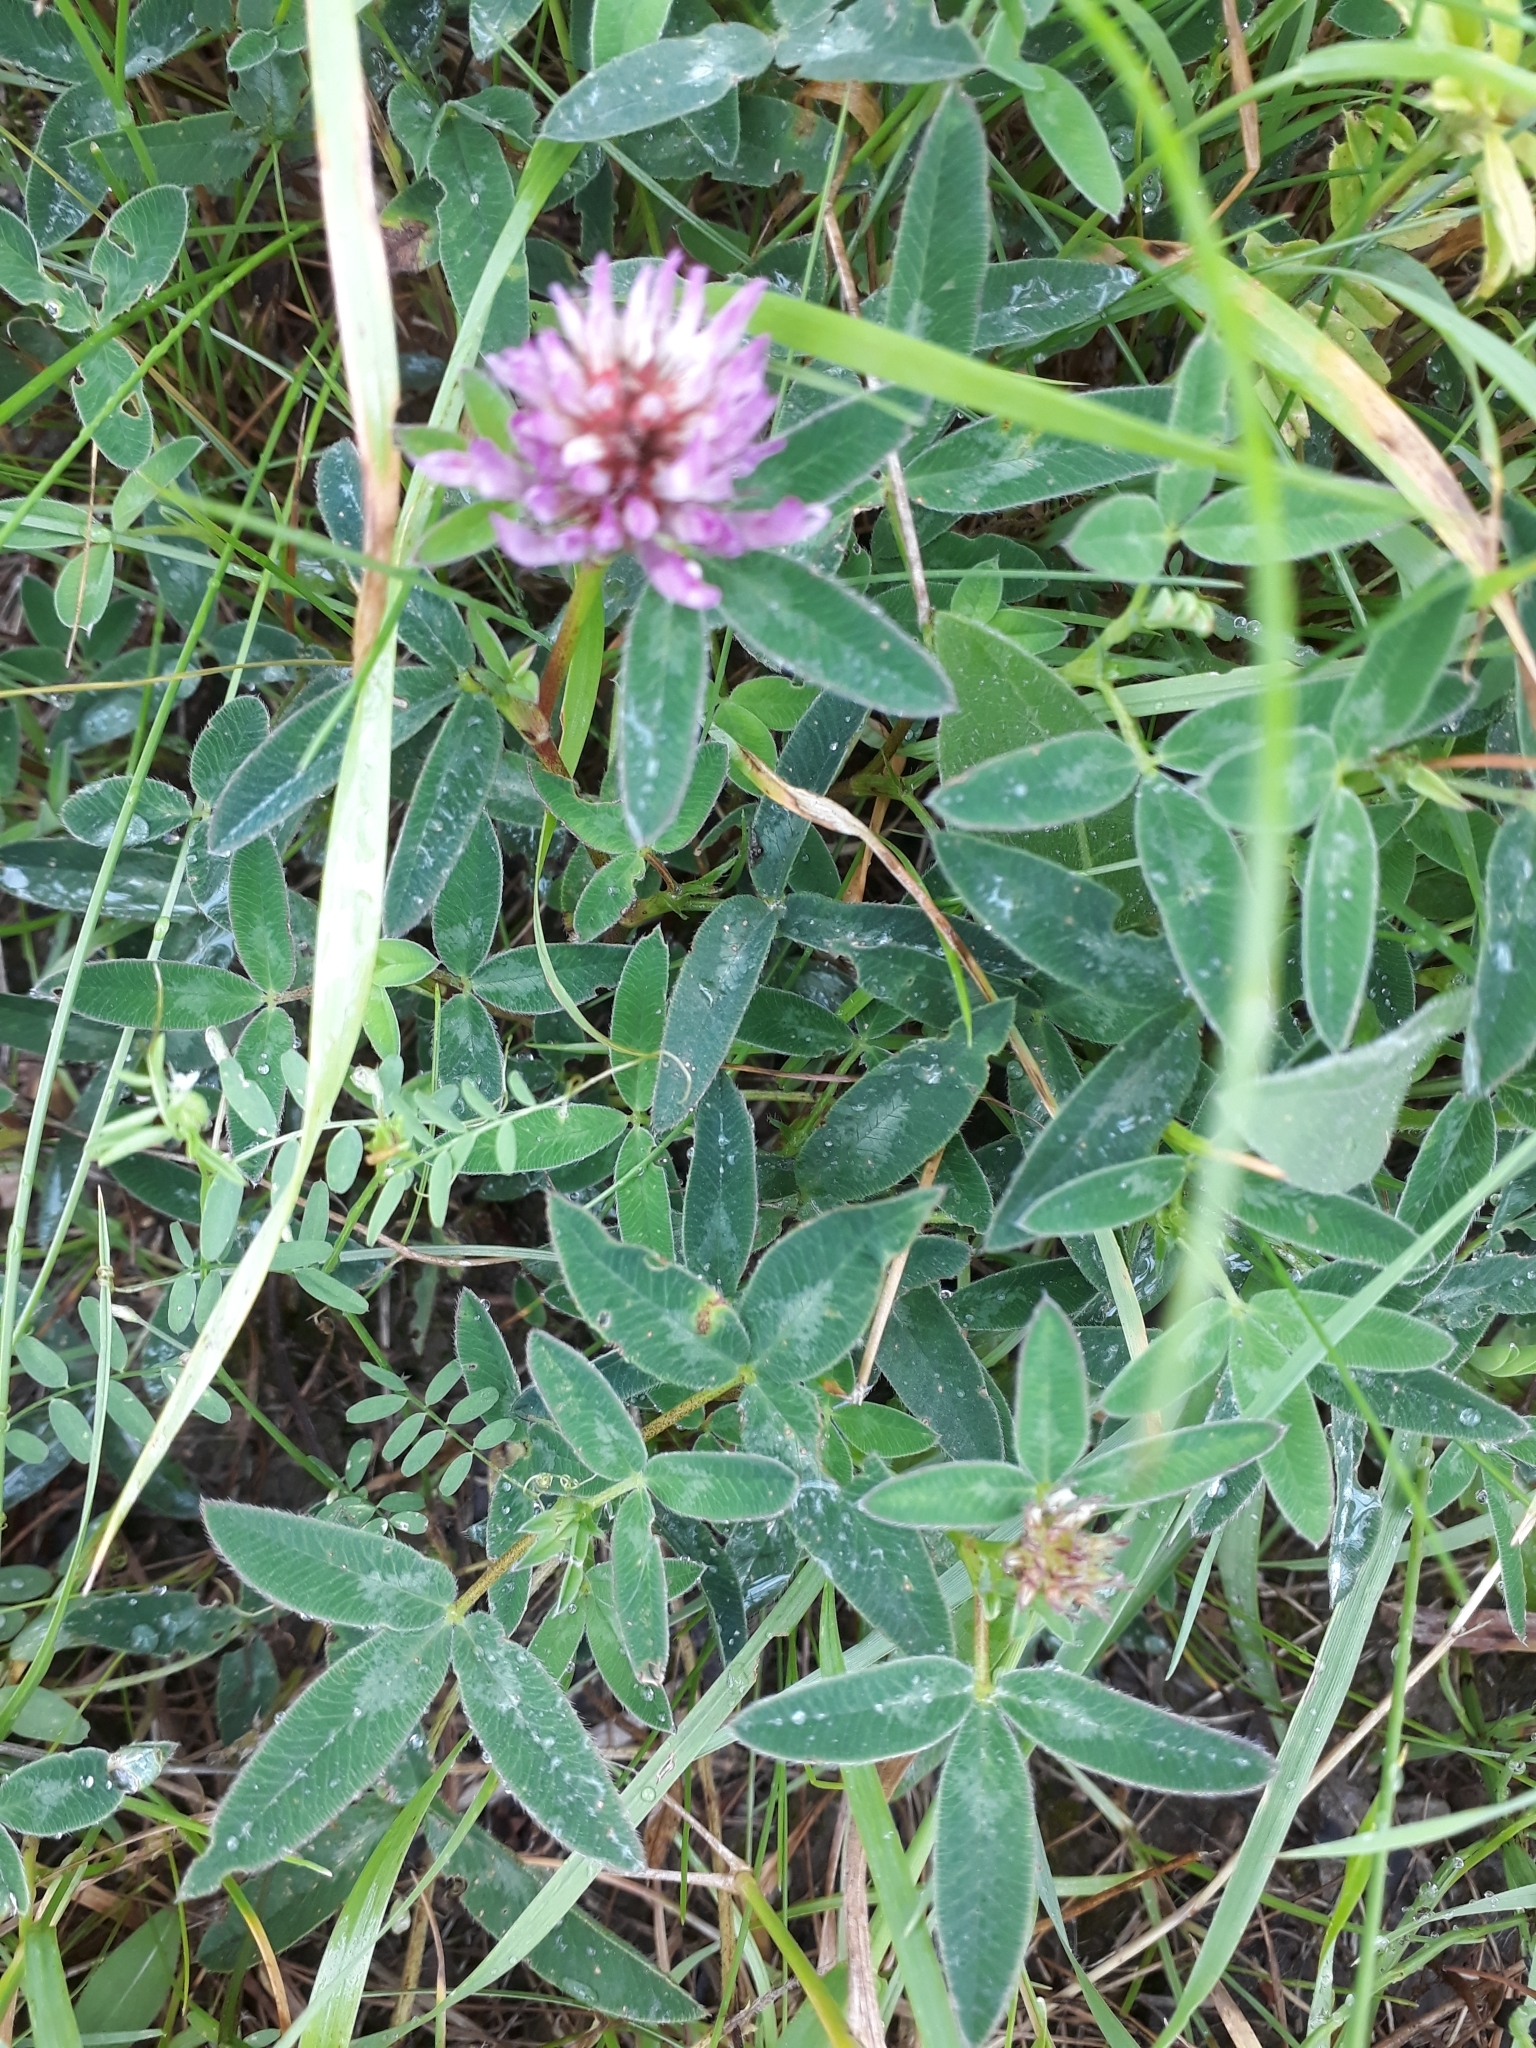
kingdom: Plantae
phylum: Tracheophyta
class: Magnoliopsida
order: Fabales
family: Fabaceae
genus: Trifolium
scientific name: Trifolium medium
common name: Zigzag clover
